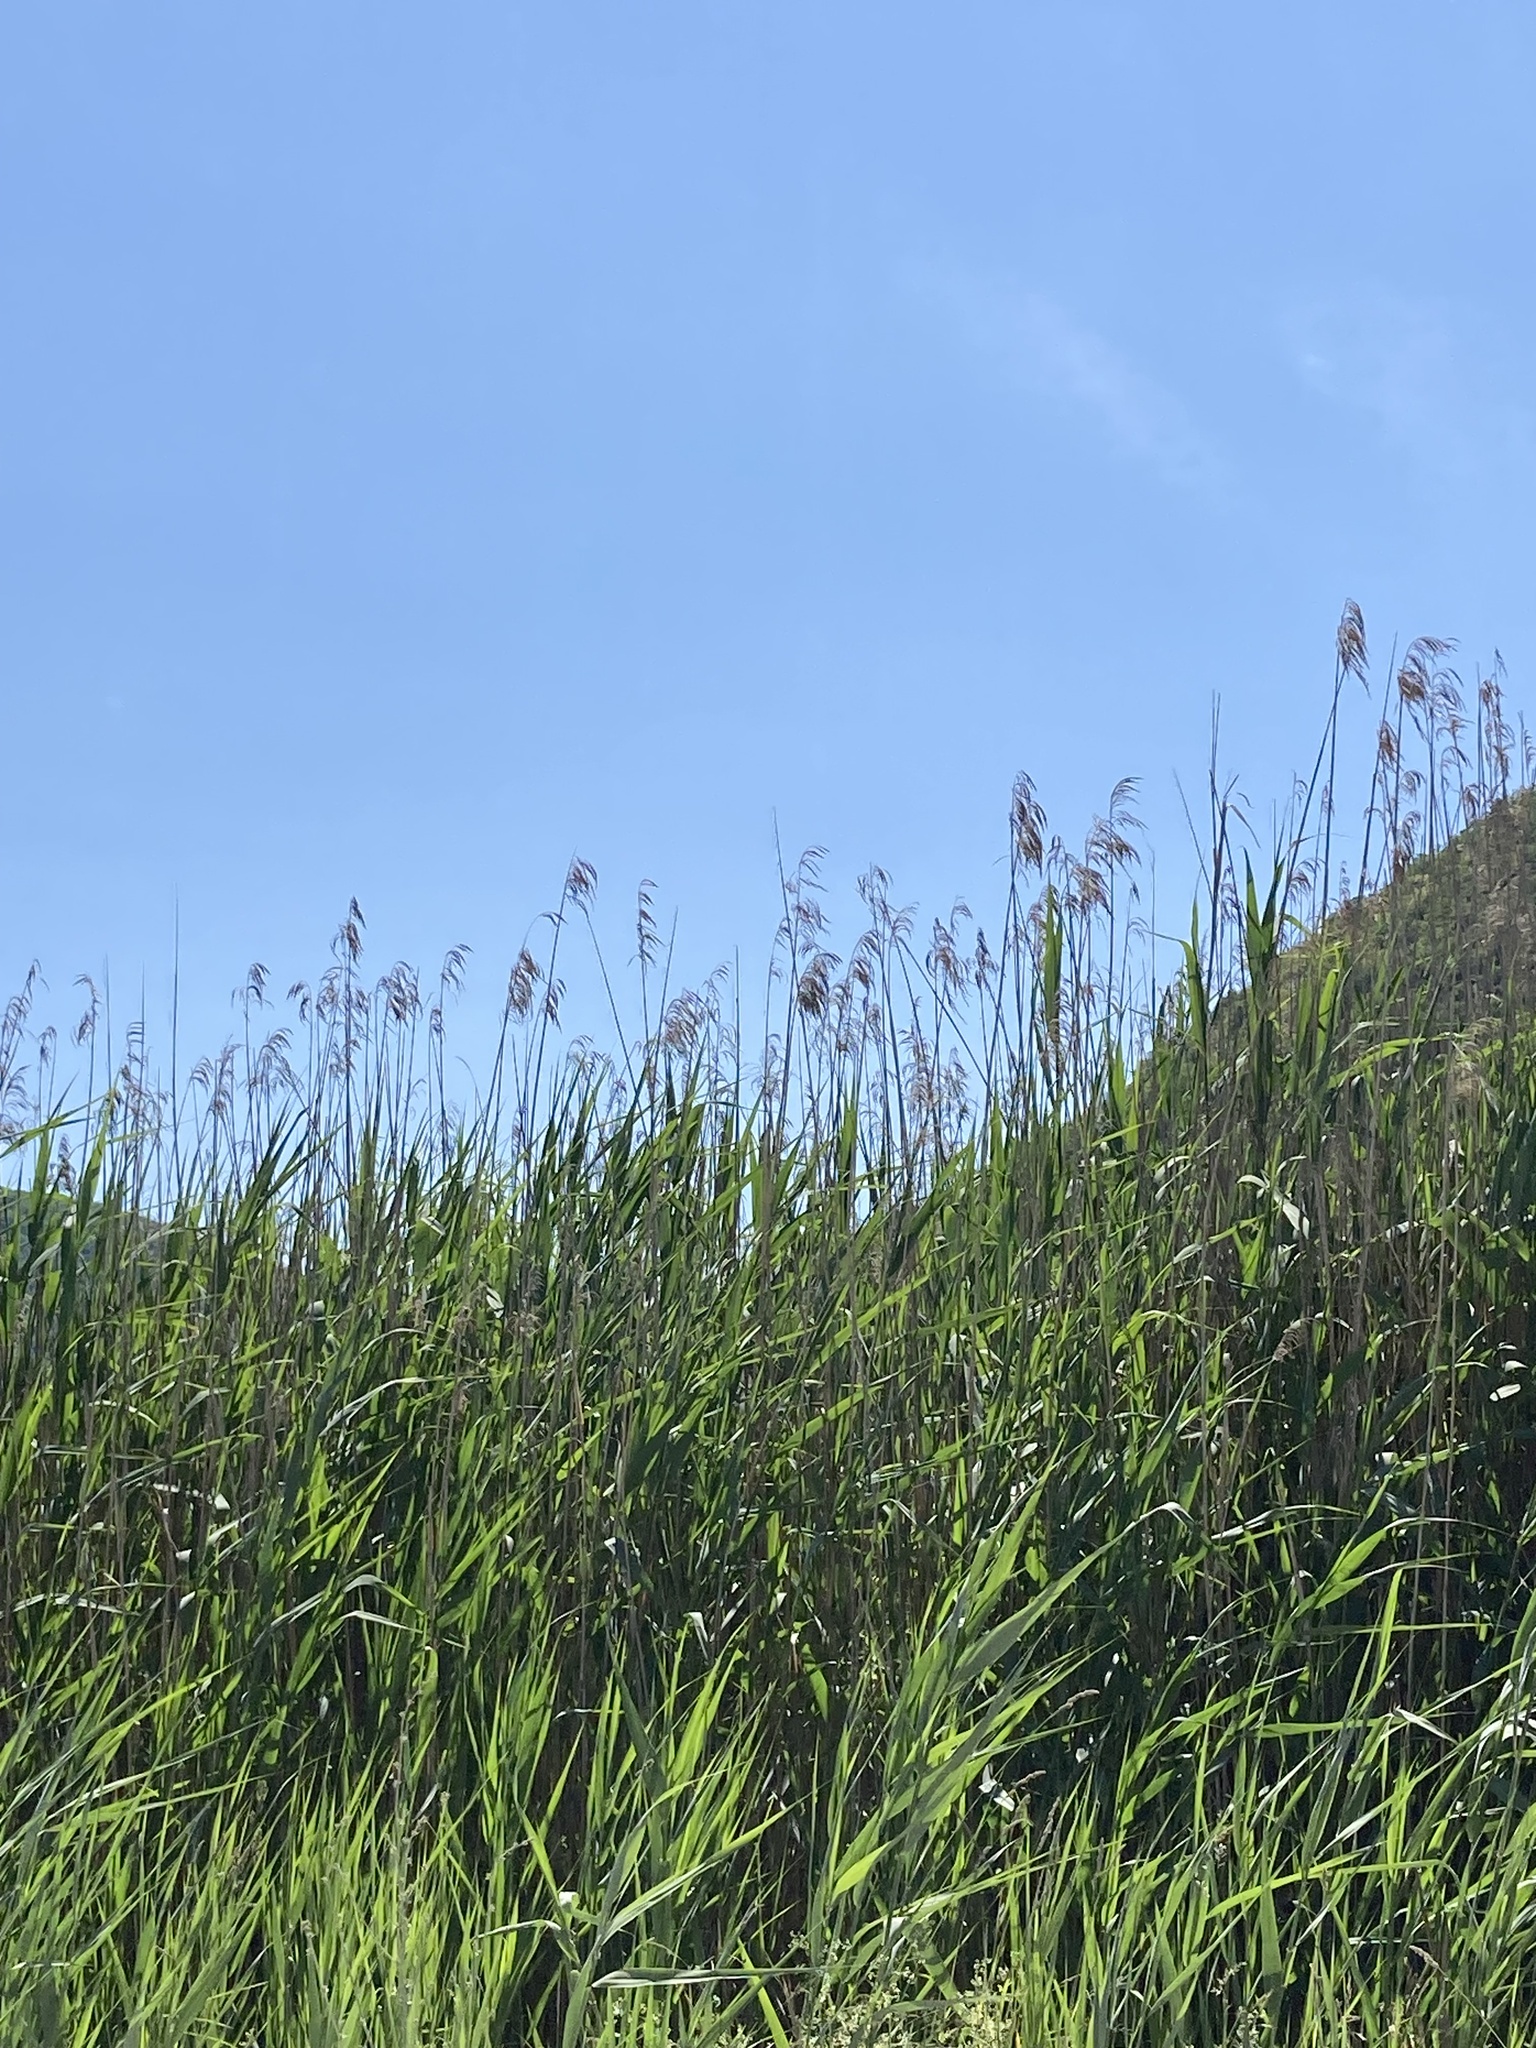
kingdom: Plantae
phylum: Tracheophyta
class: Liliopsida
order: Poales
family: Poaceae
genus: Phragmites
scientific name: Phragmites australis
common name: Common reed
